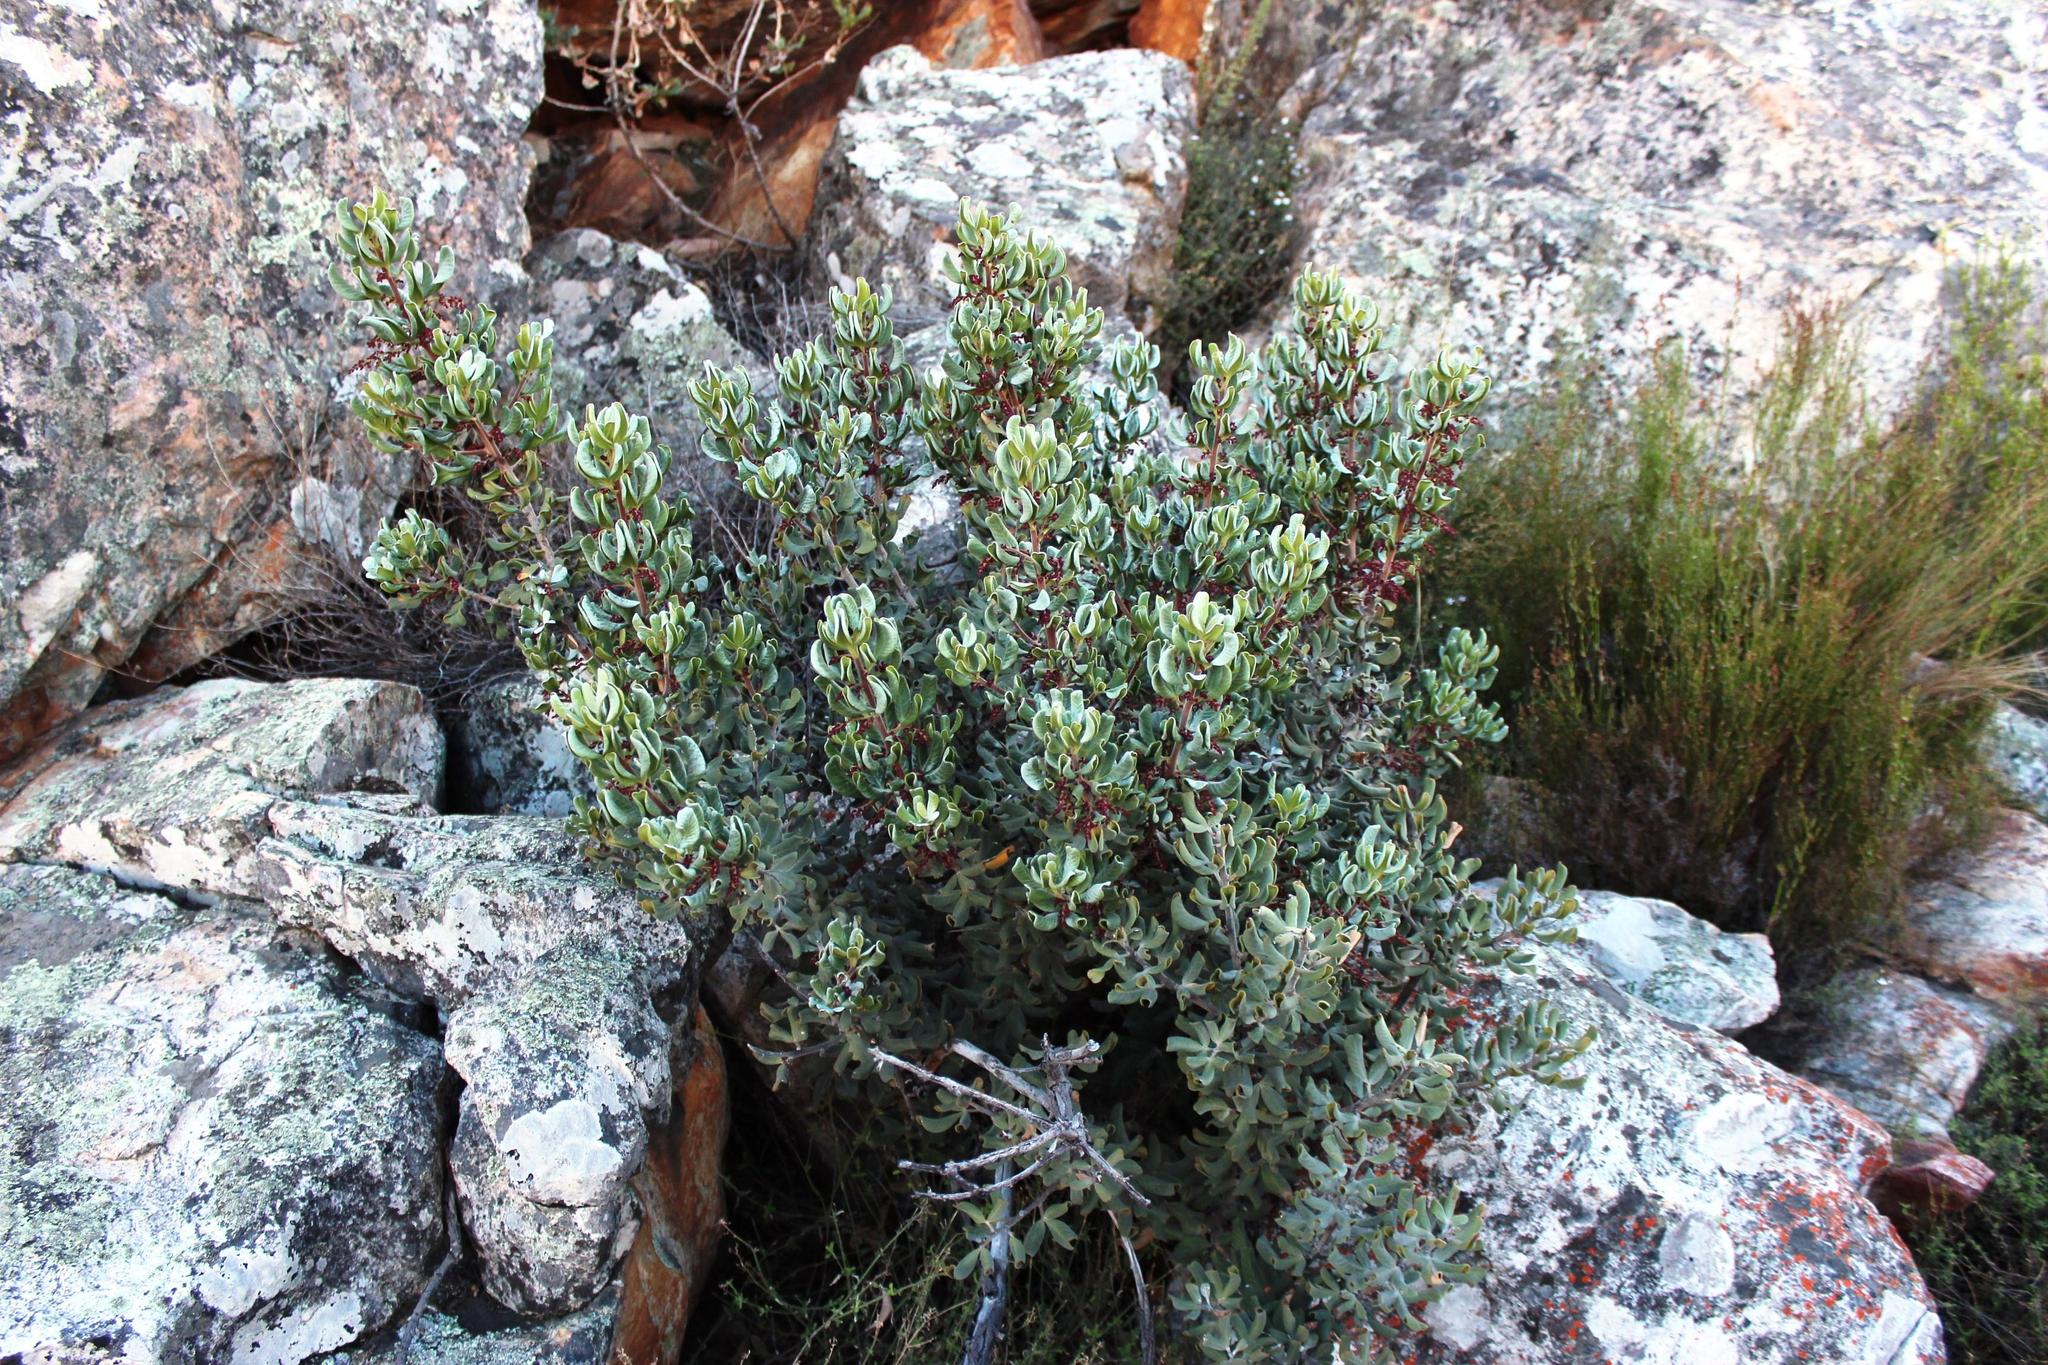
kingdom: Plantae
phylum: Tracheophyta
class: Magnoliopsida
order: Sapindales
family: Anacardiaceae
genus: Searsia
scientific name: Searsia scytophylla
